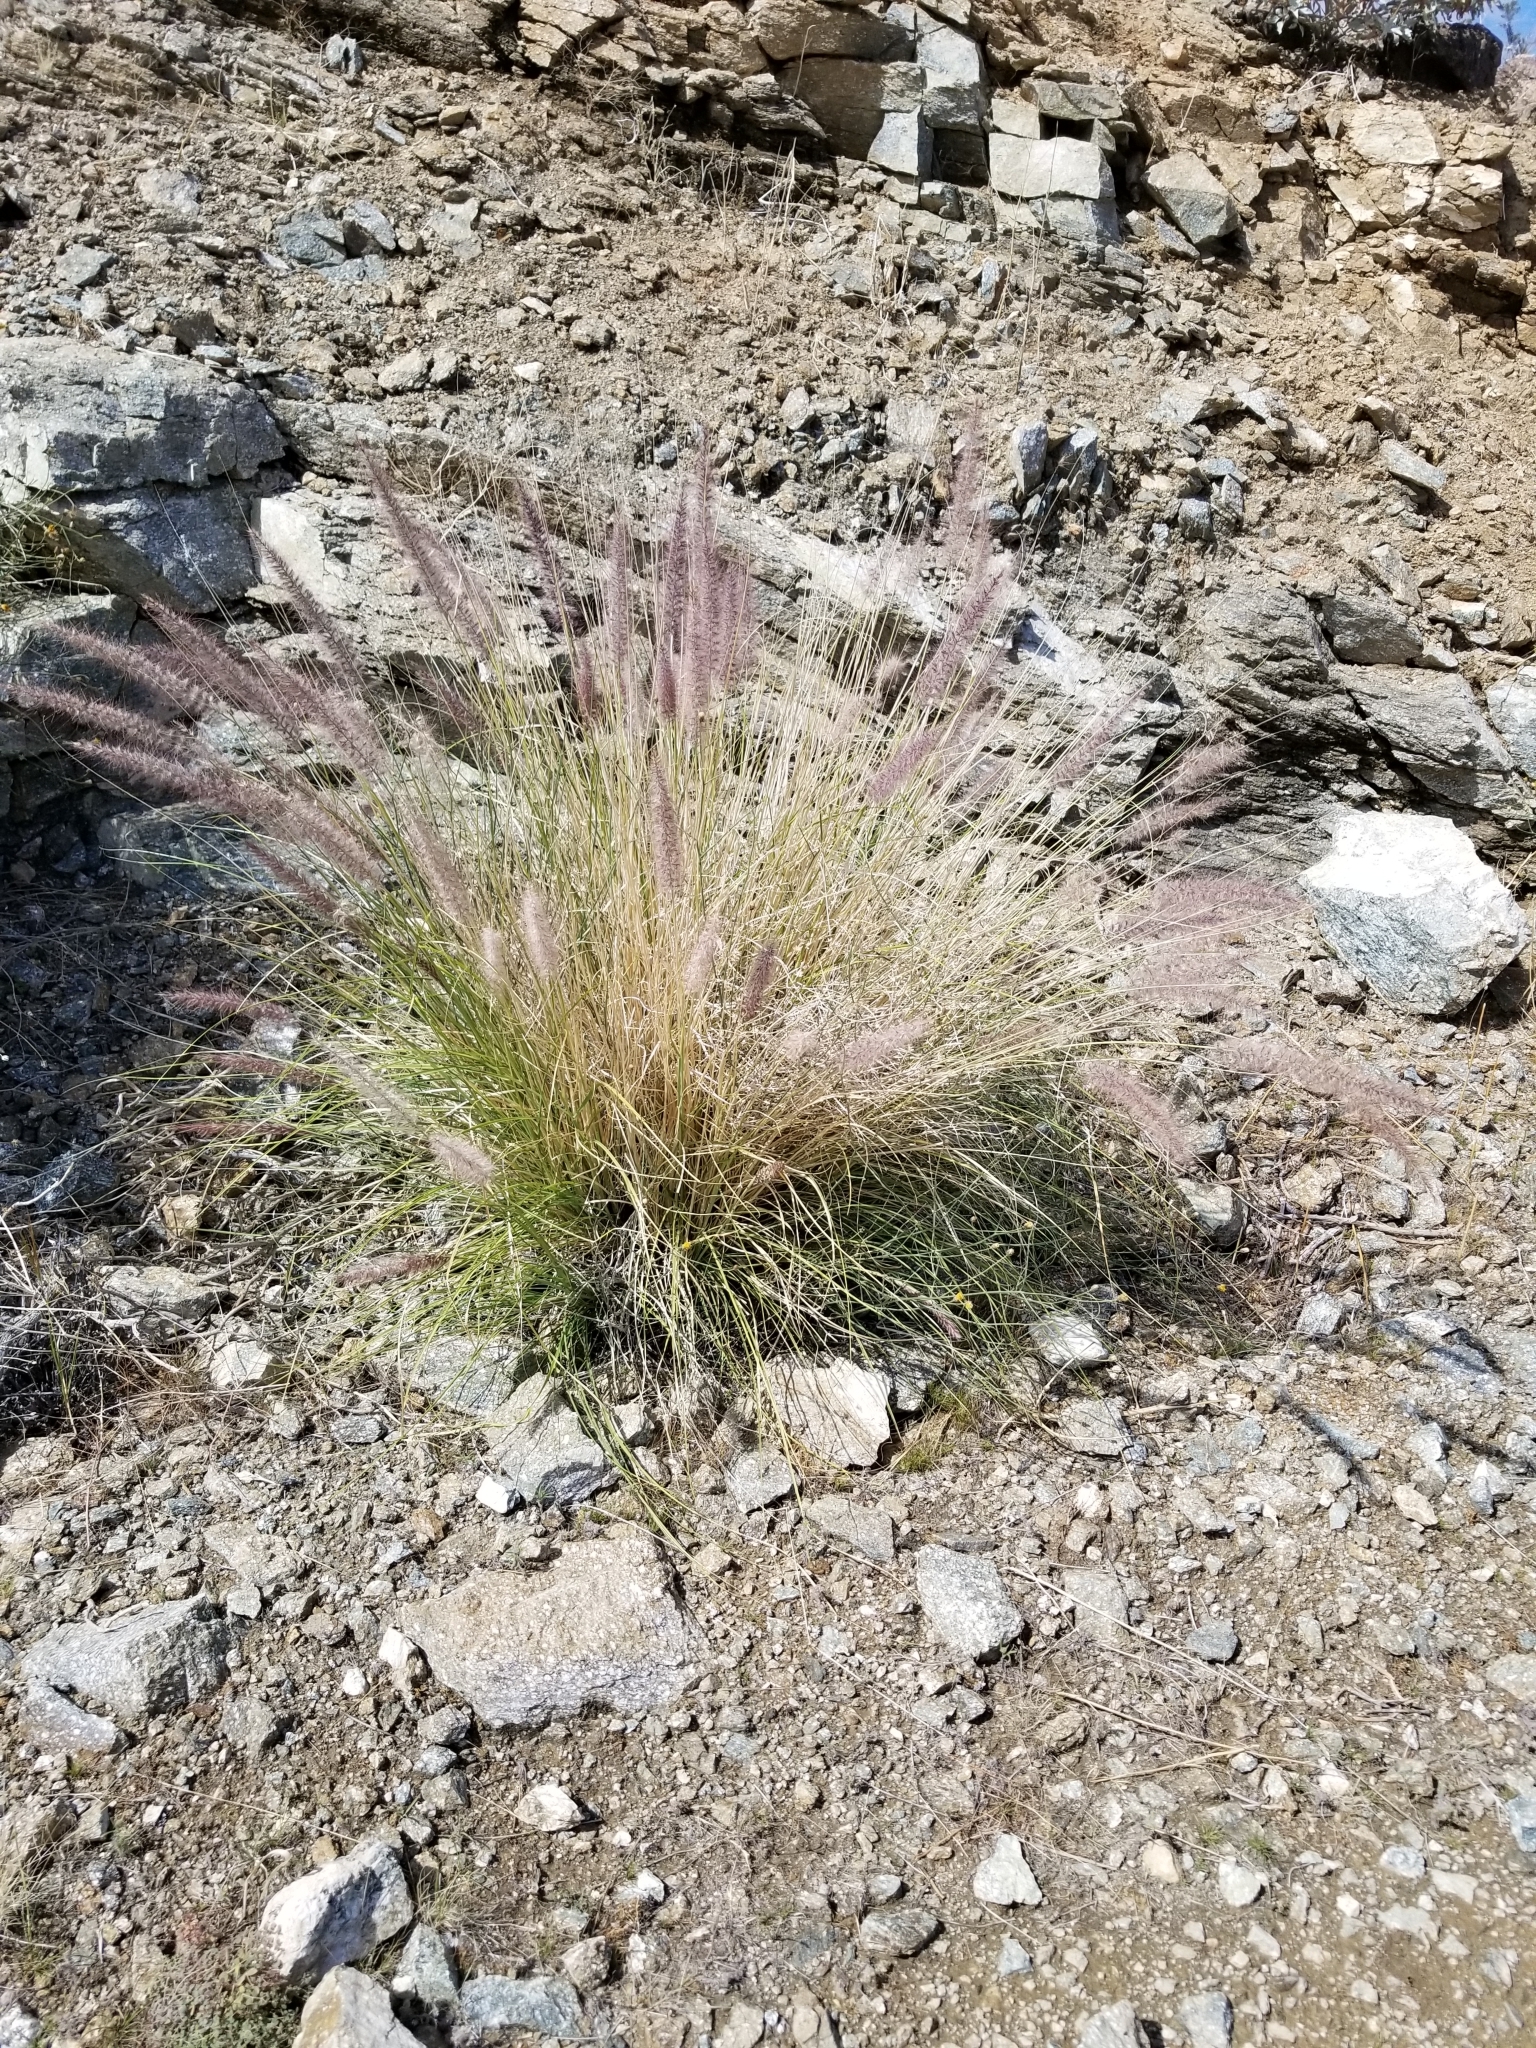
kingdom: Plantae
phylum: Tracheophyta
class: Liliopsida
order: Poales
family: Poaceae
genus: Cenchrus
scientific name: Cenchrus setaceus
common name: Crimson fountaingrass
